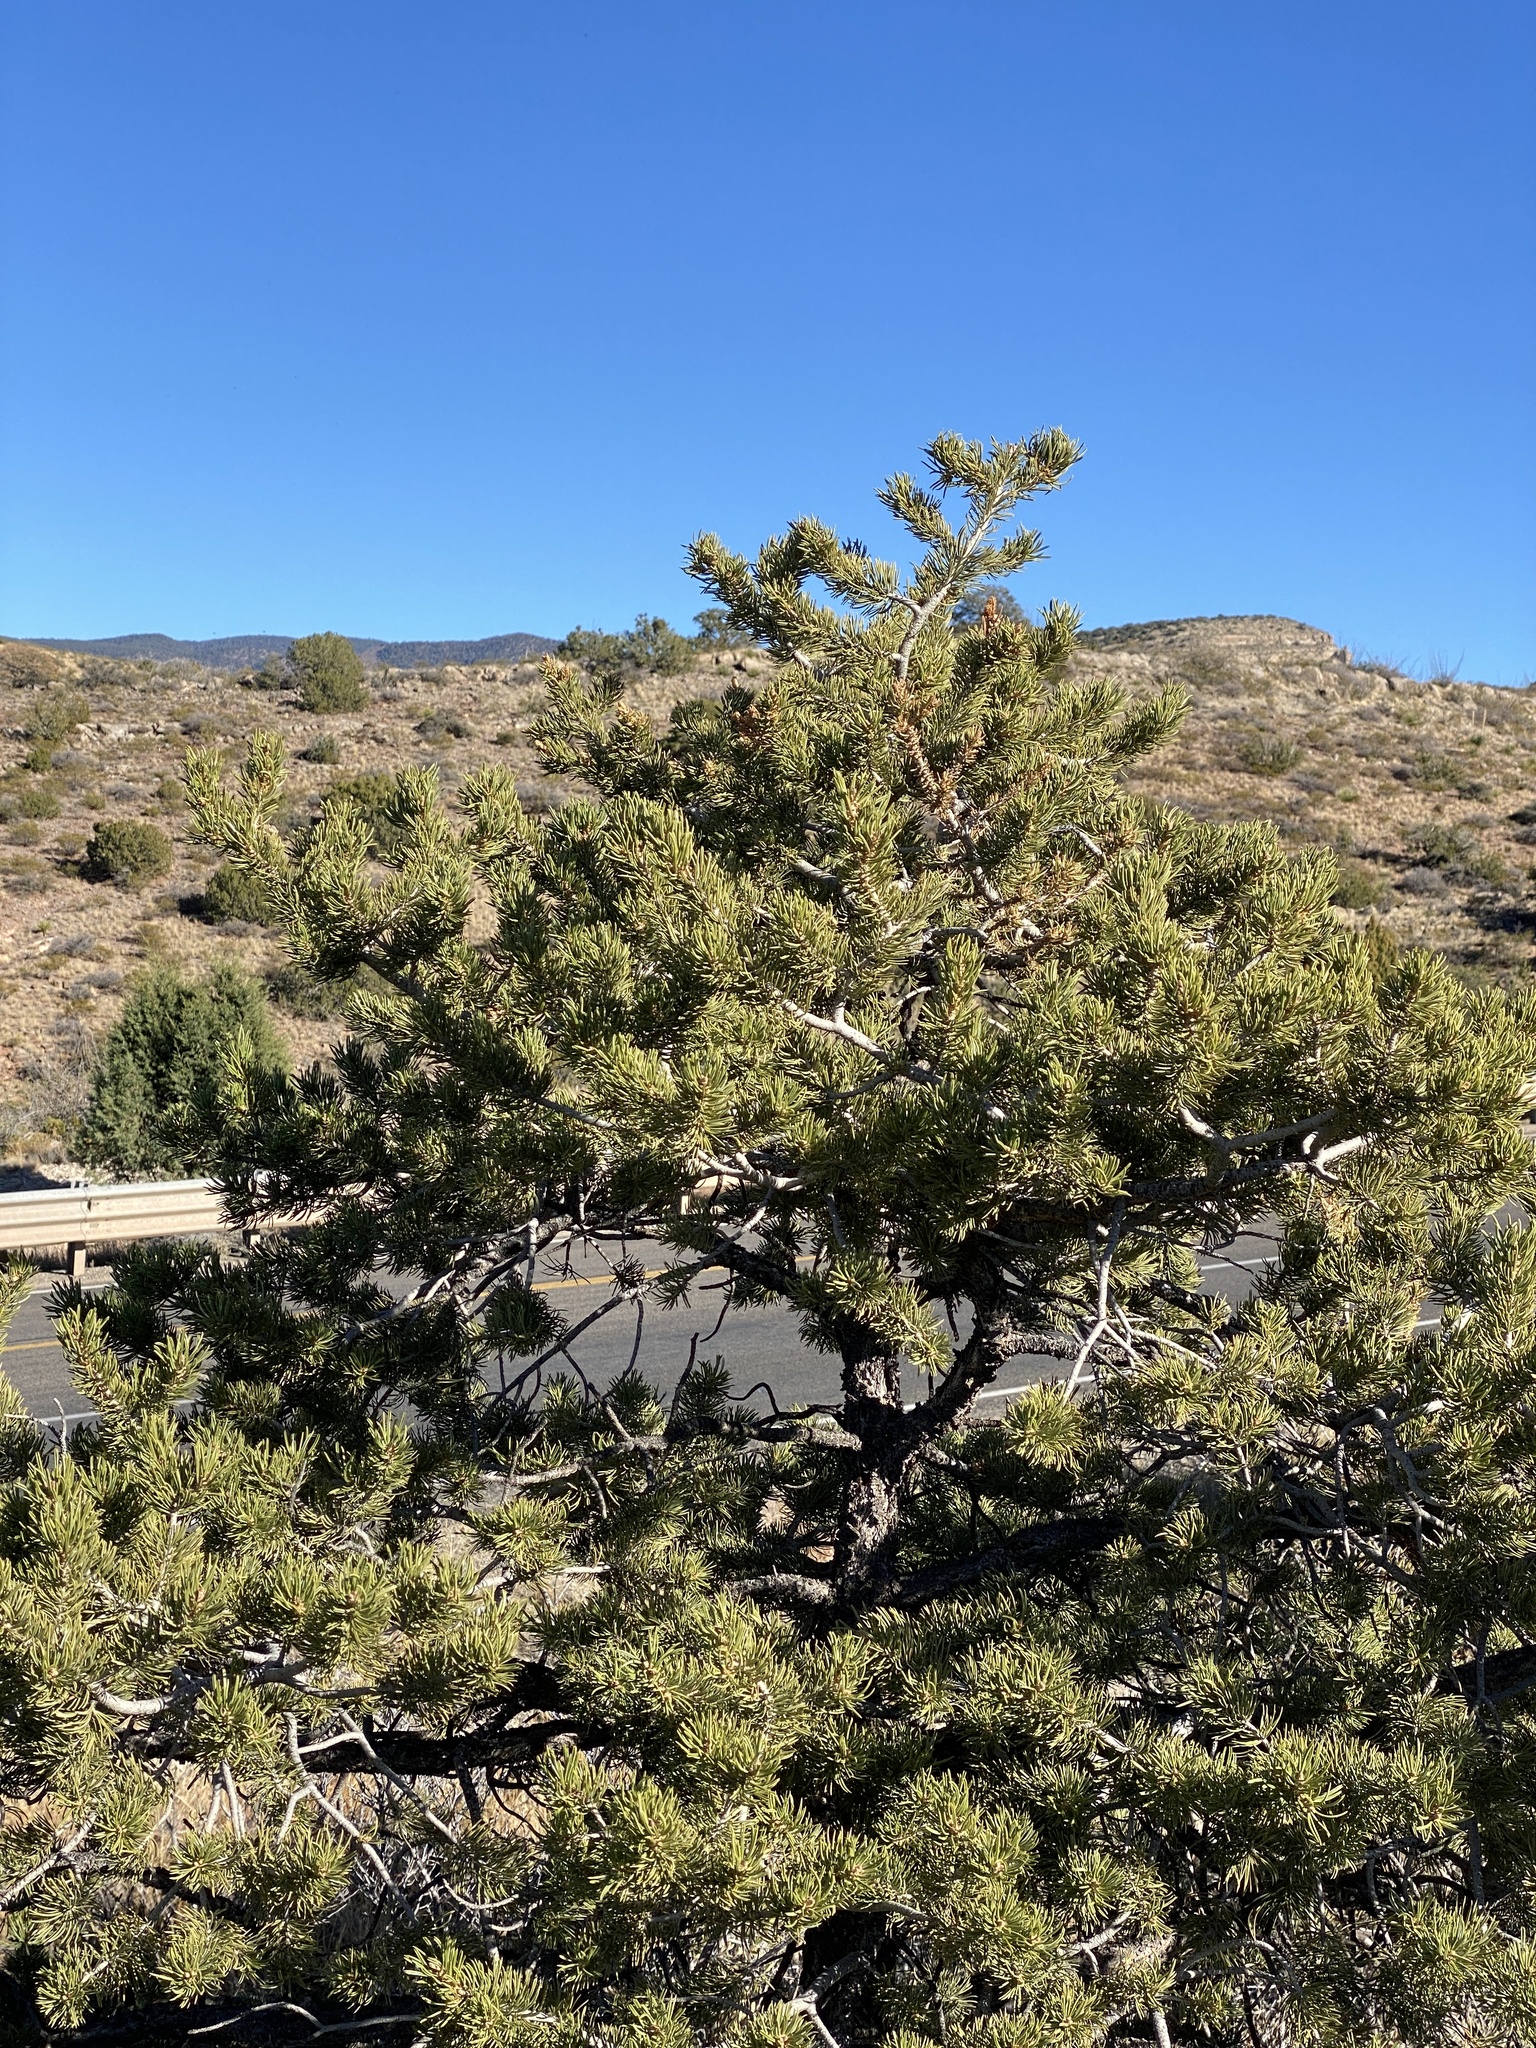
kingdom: Plantae
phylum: Tracheophyta
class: Pinopsida
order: Pinales
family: Pinaceae
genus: Pinus
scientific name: Pinus edulis
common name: Colorado pinyon
